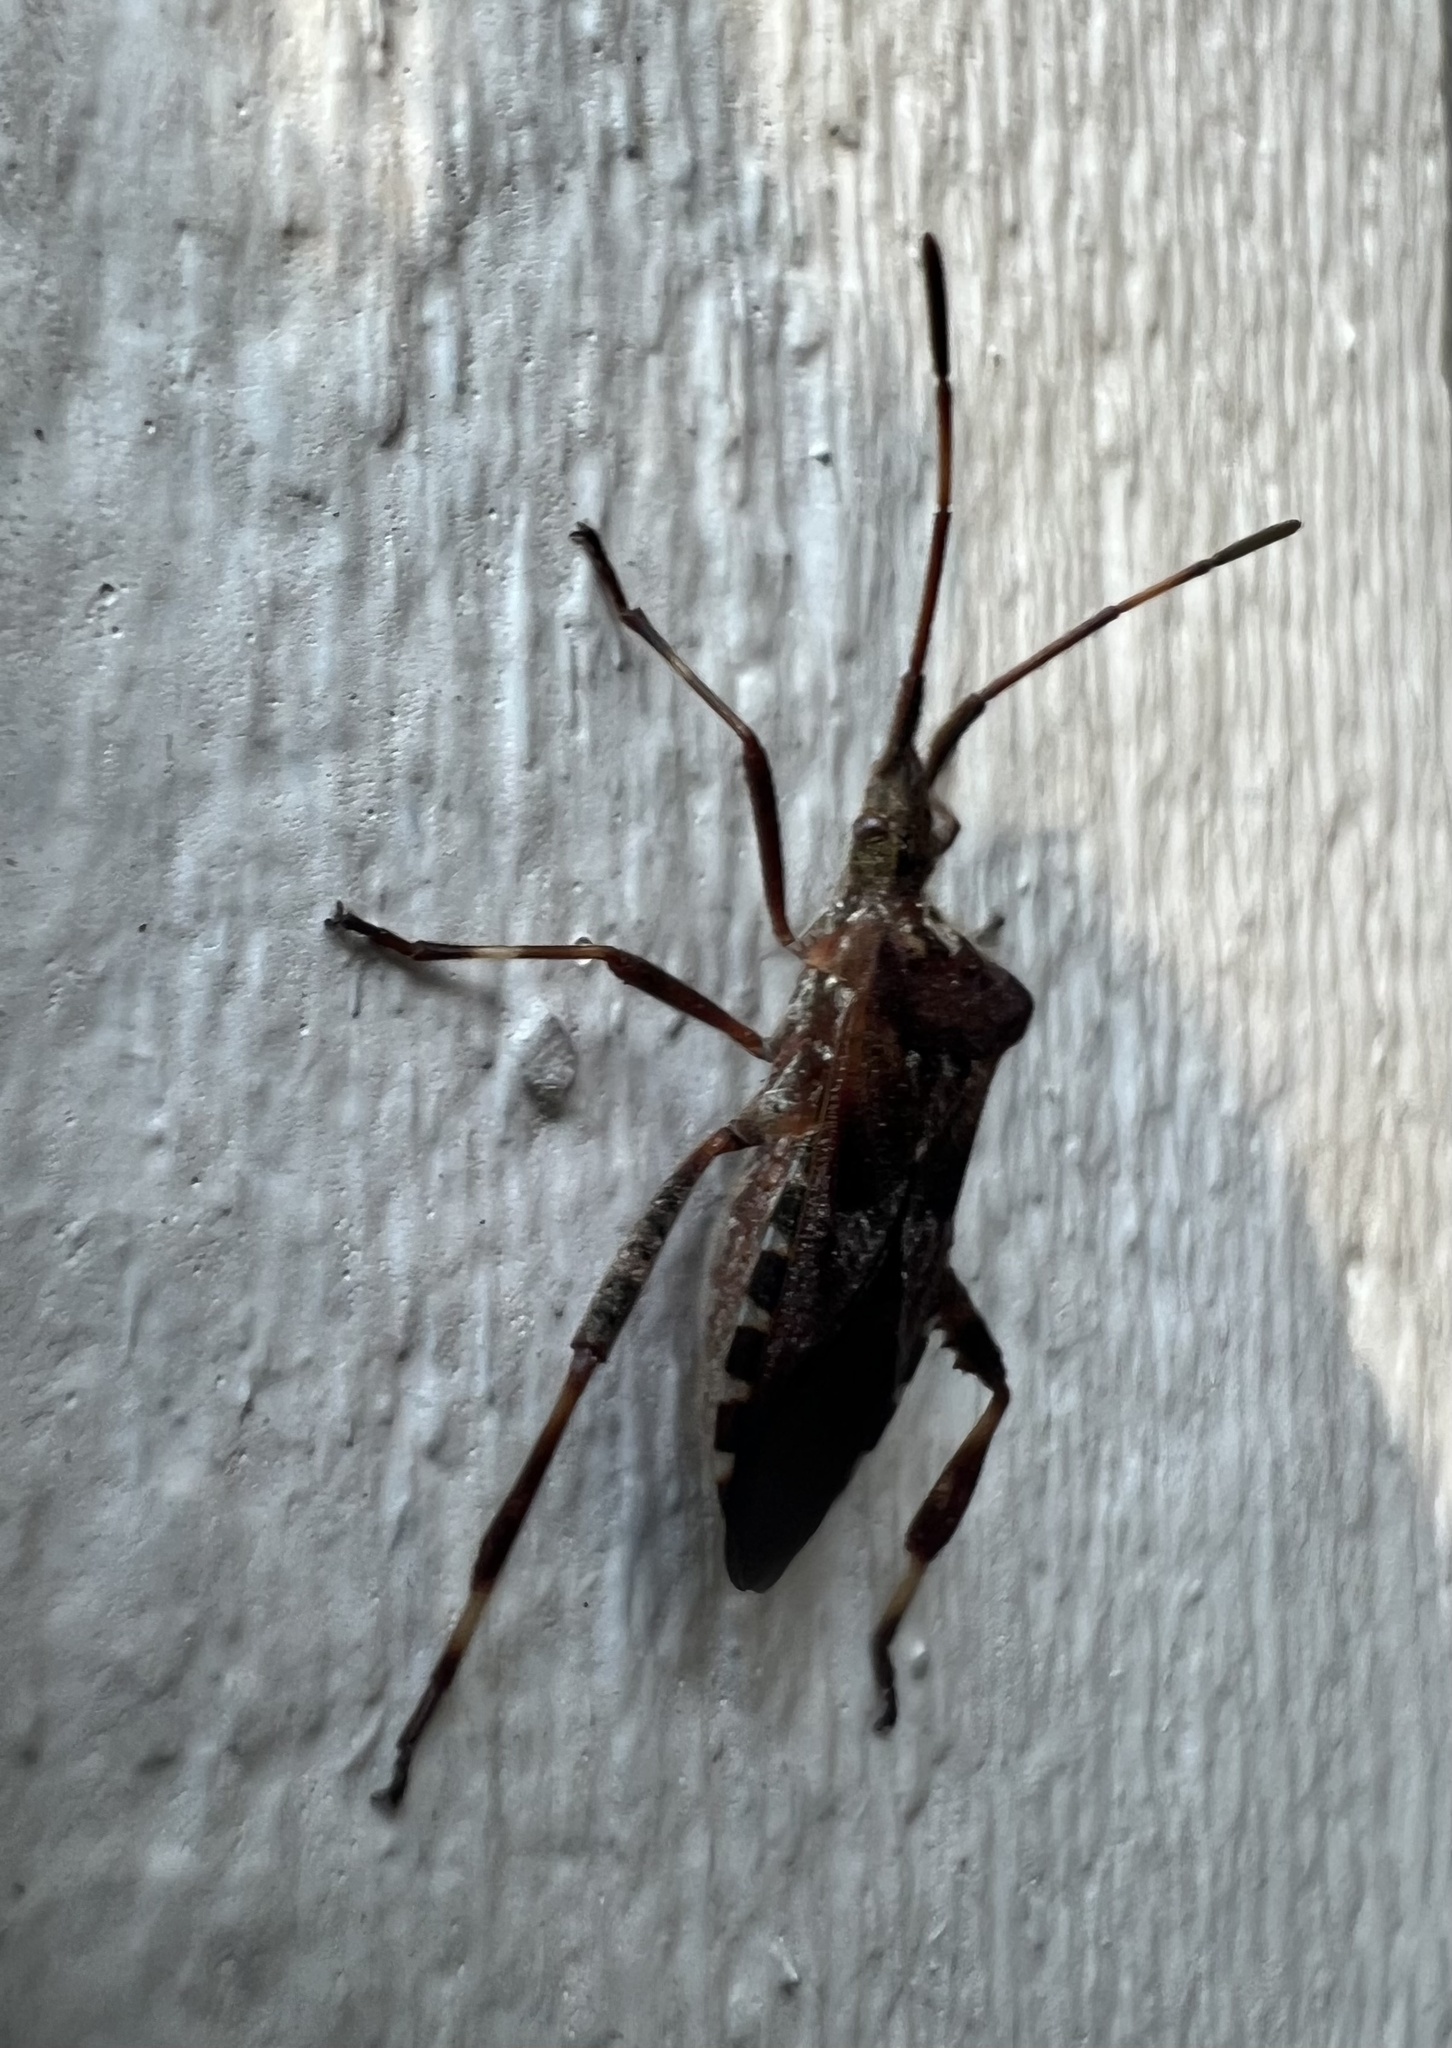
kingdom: Animalia
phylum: Arthropoda
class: Insecta
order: Hemiptera
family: Coreidae
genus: Leptoglossus
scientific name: Leptoglossus occidentalis
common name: Western conifer-seed bug
